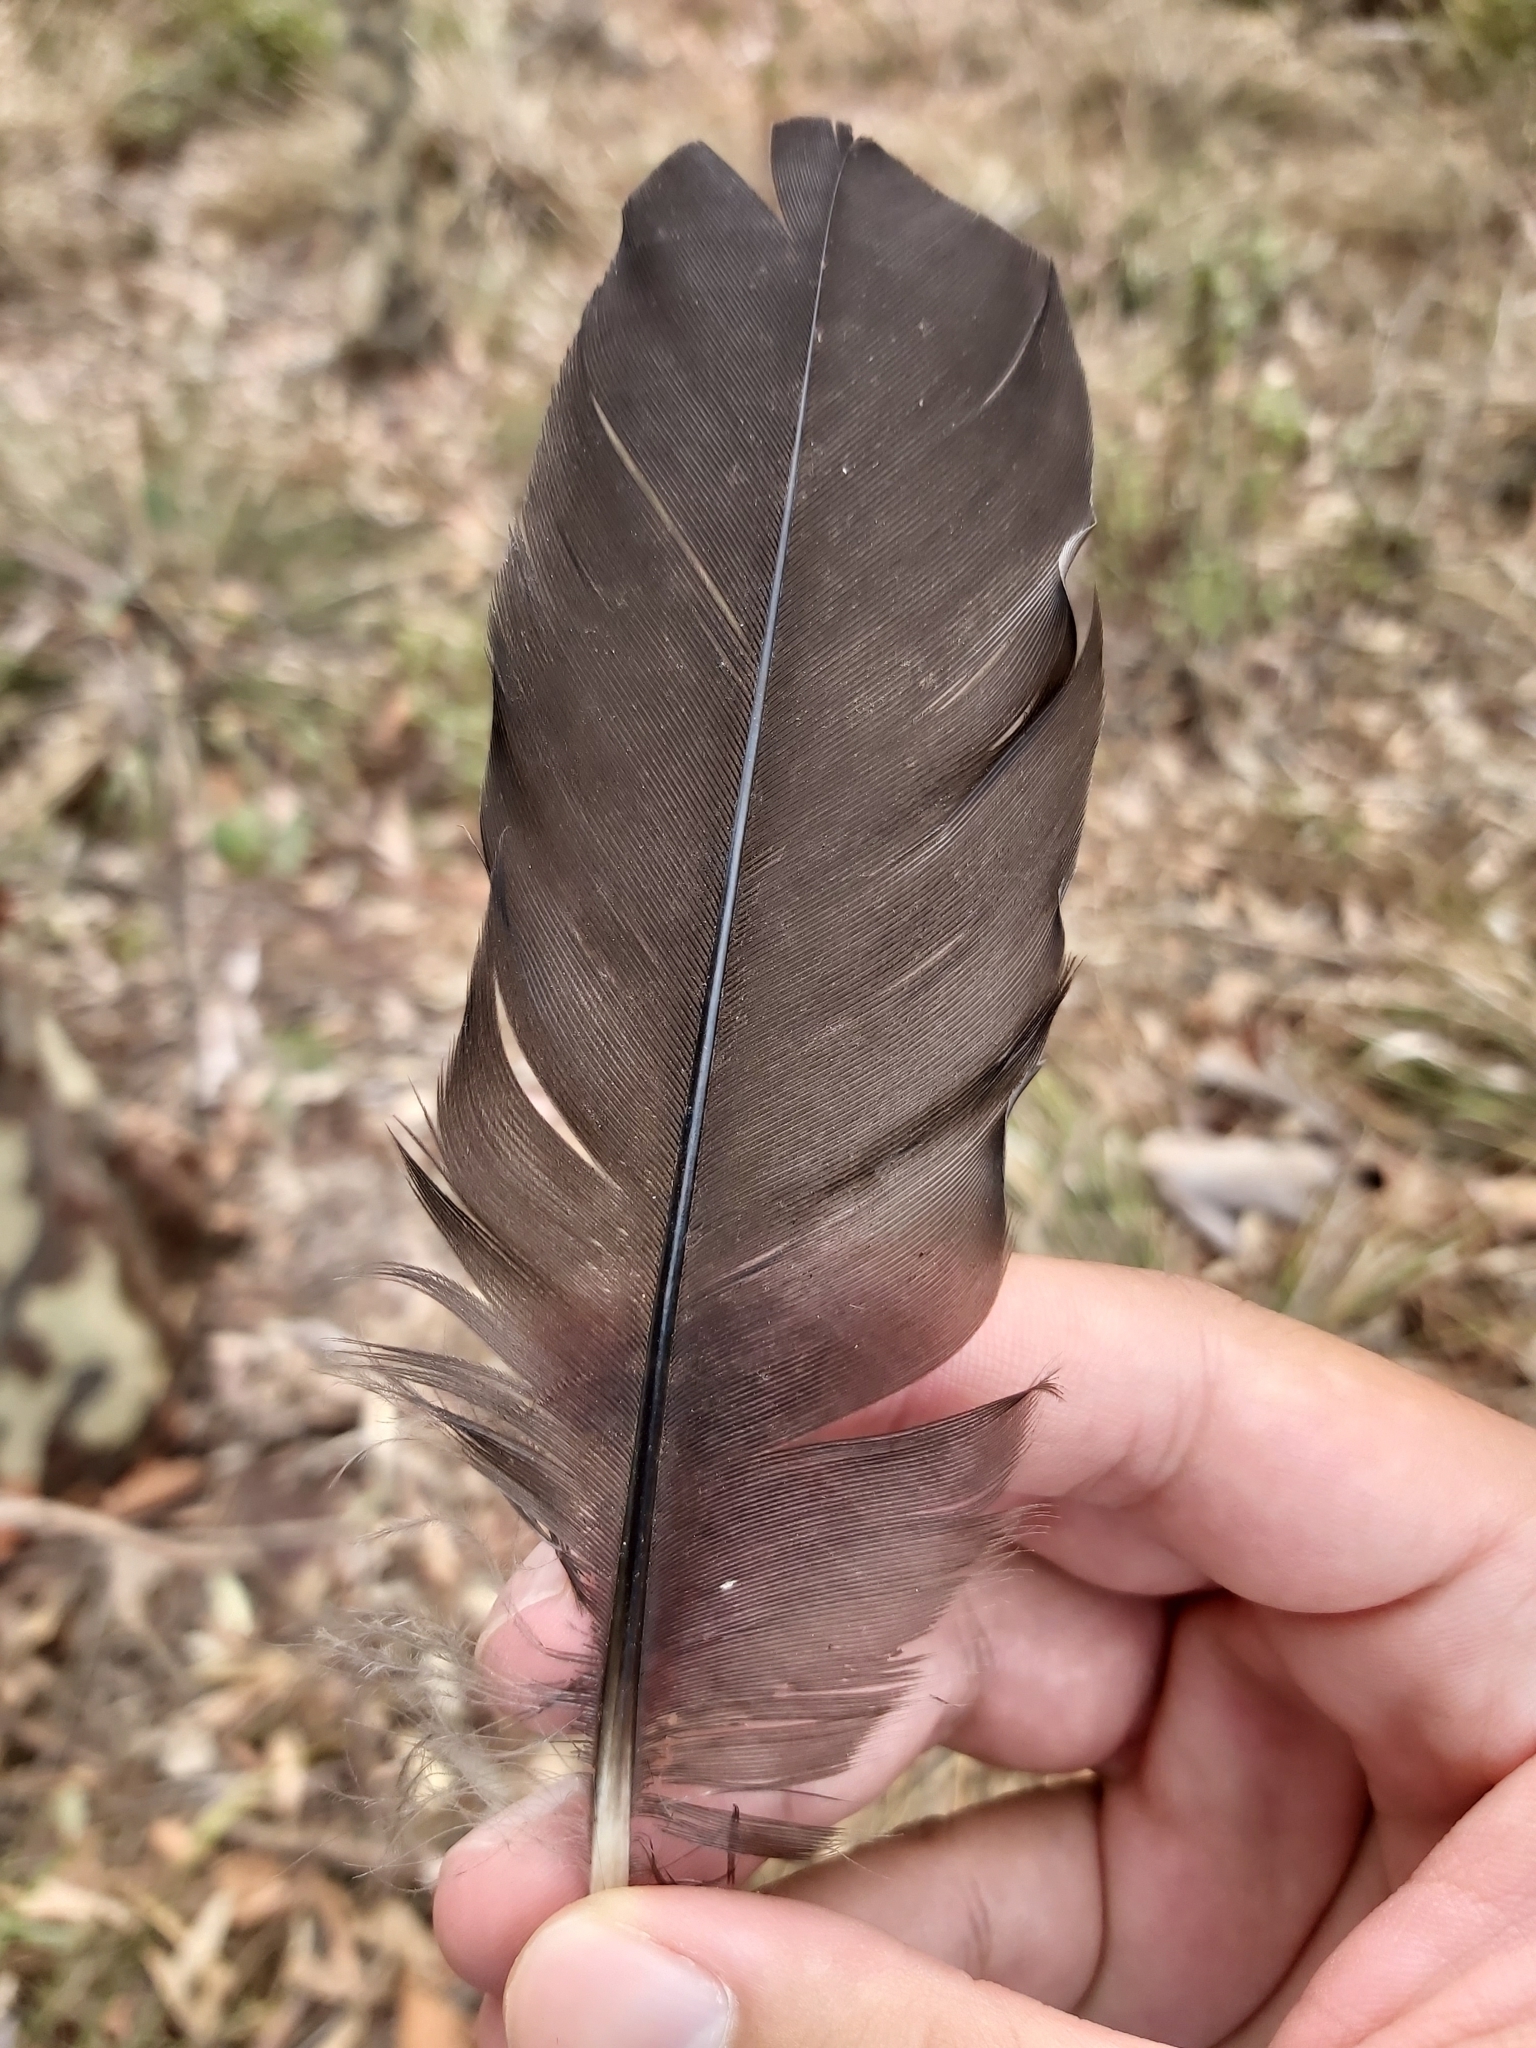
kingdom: Animalia
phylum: Chordata
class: Aves
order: Gruiformes
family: Rallidae
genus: Gallinula
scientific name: Gallinula tenebrosa
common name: Dusky moorhen
